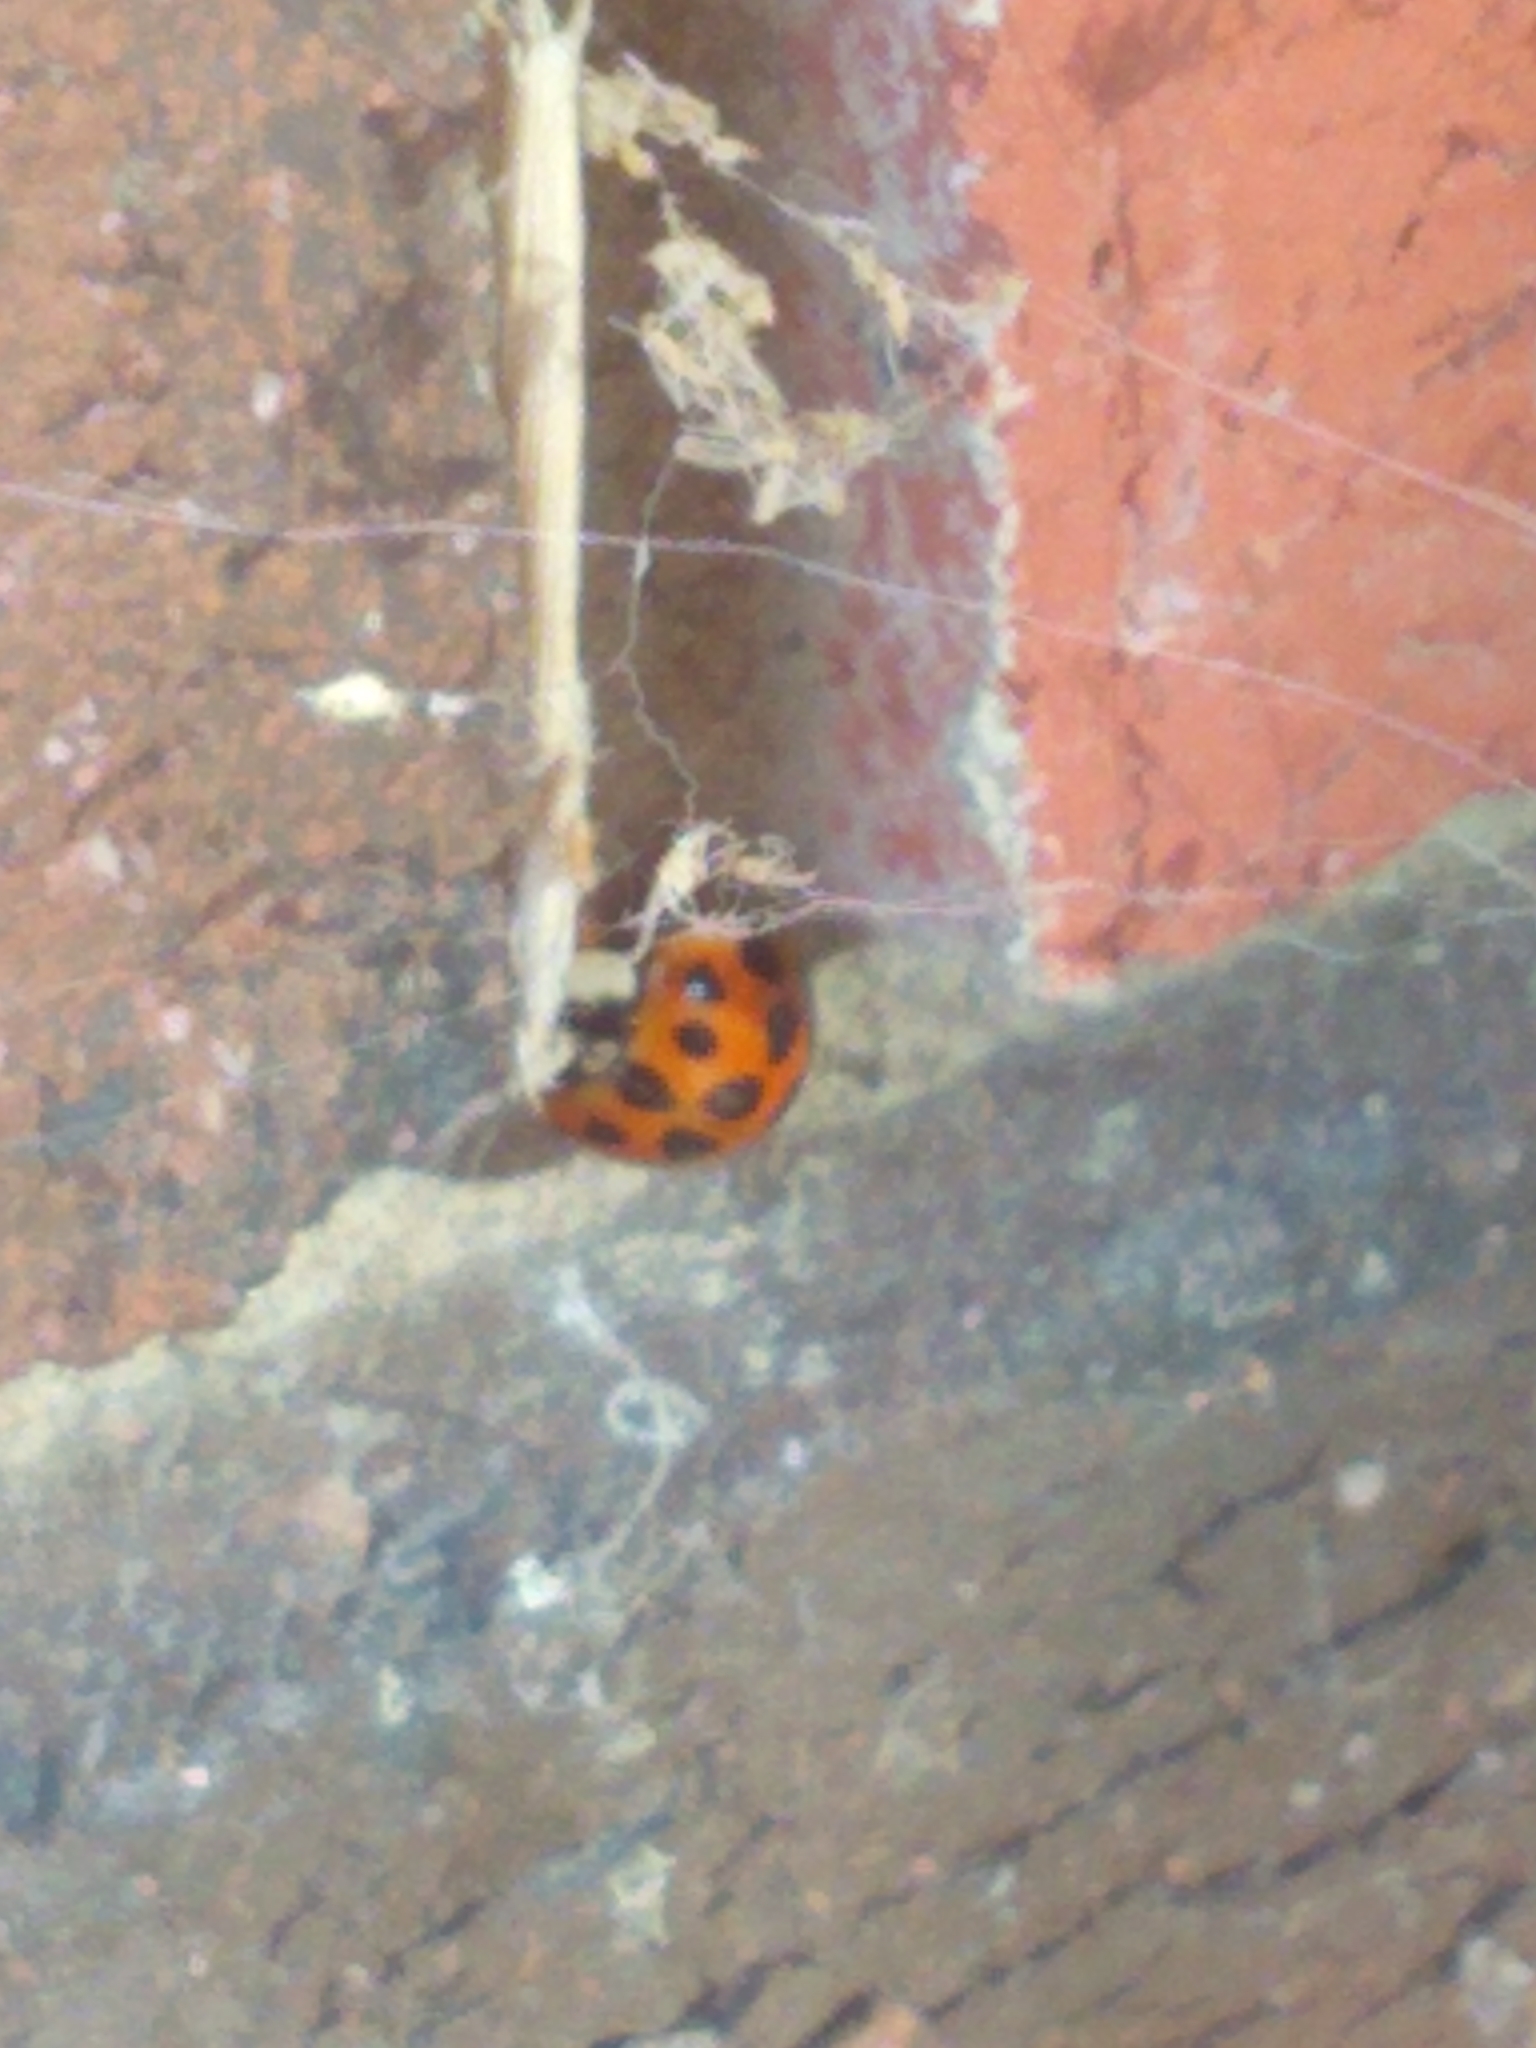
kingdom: Animalia
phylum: Arthropoda
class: Insecta
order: Coleoptera
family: Coccinellidae
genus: Harmonia
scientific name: Harmonia axyridis
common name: Harlequin ladybird
